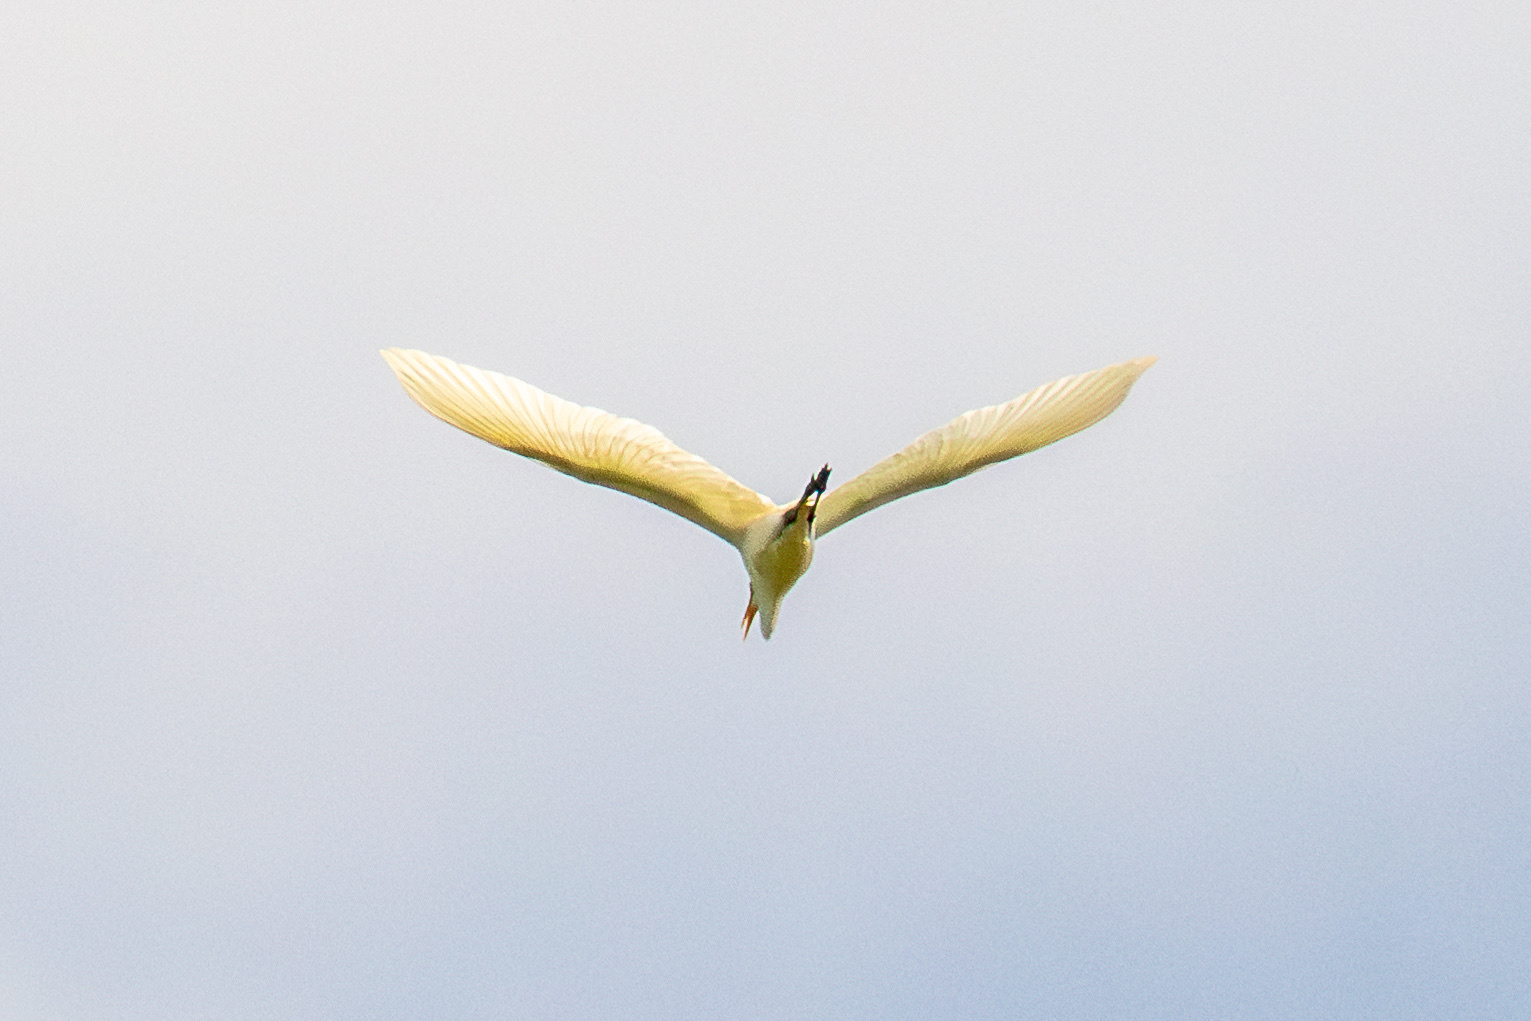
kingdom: Animalia
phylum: Chordata
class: Aves
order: Pelecaniformes
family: Ardeidae
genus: Ardea
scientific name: Ardea alba
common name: Great egret
